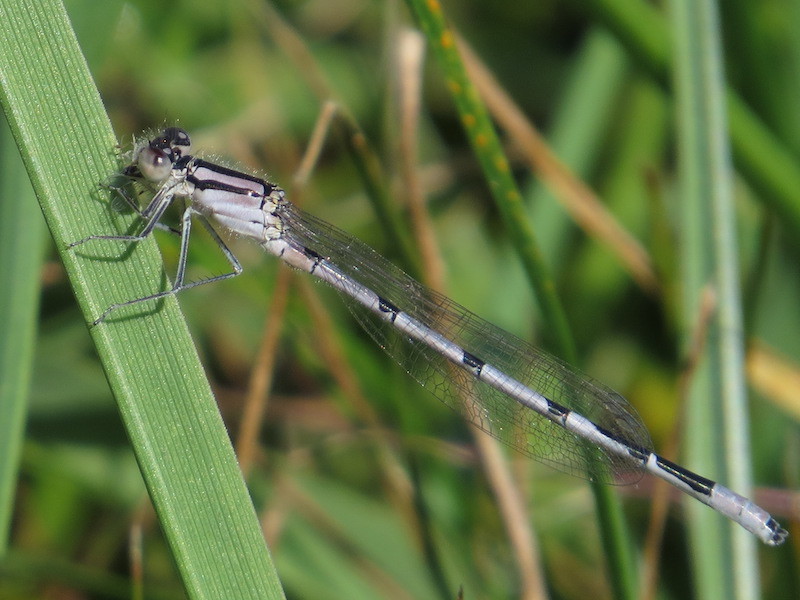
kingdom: Animalia
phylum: Arthropoda
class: Insecta
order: Odonata
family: Coenagrionidae
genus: Enallagma
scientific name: Enallagma civile
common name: Damselfly
